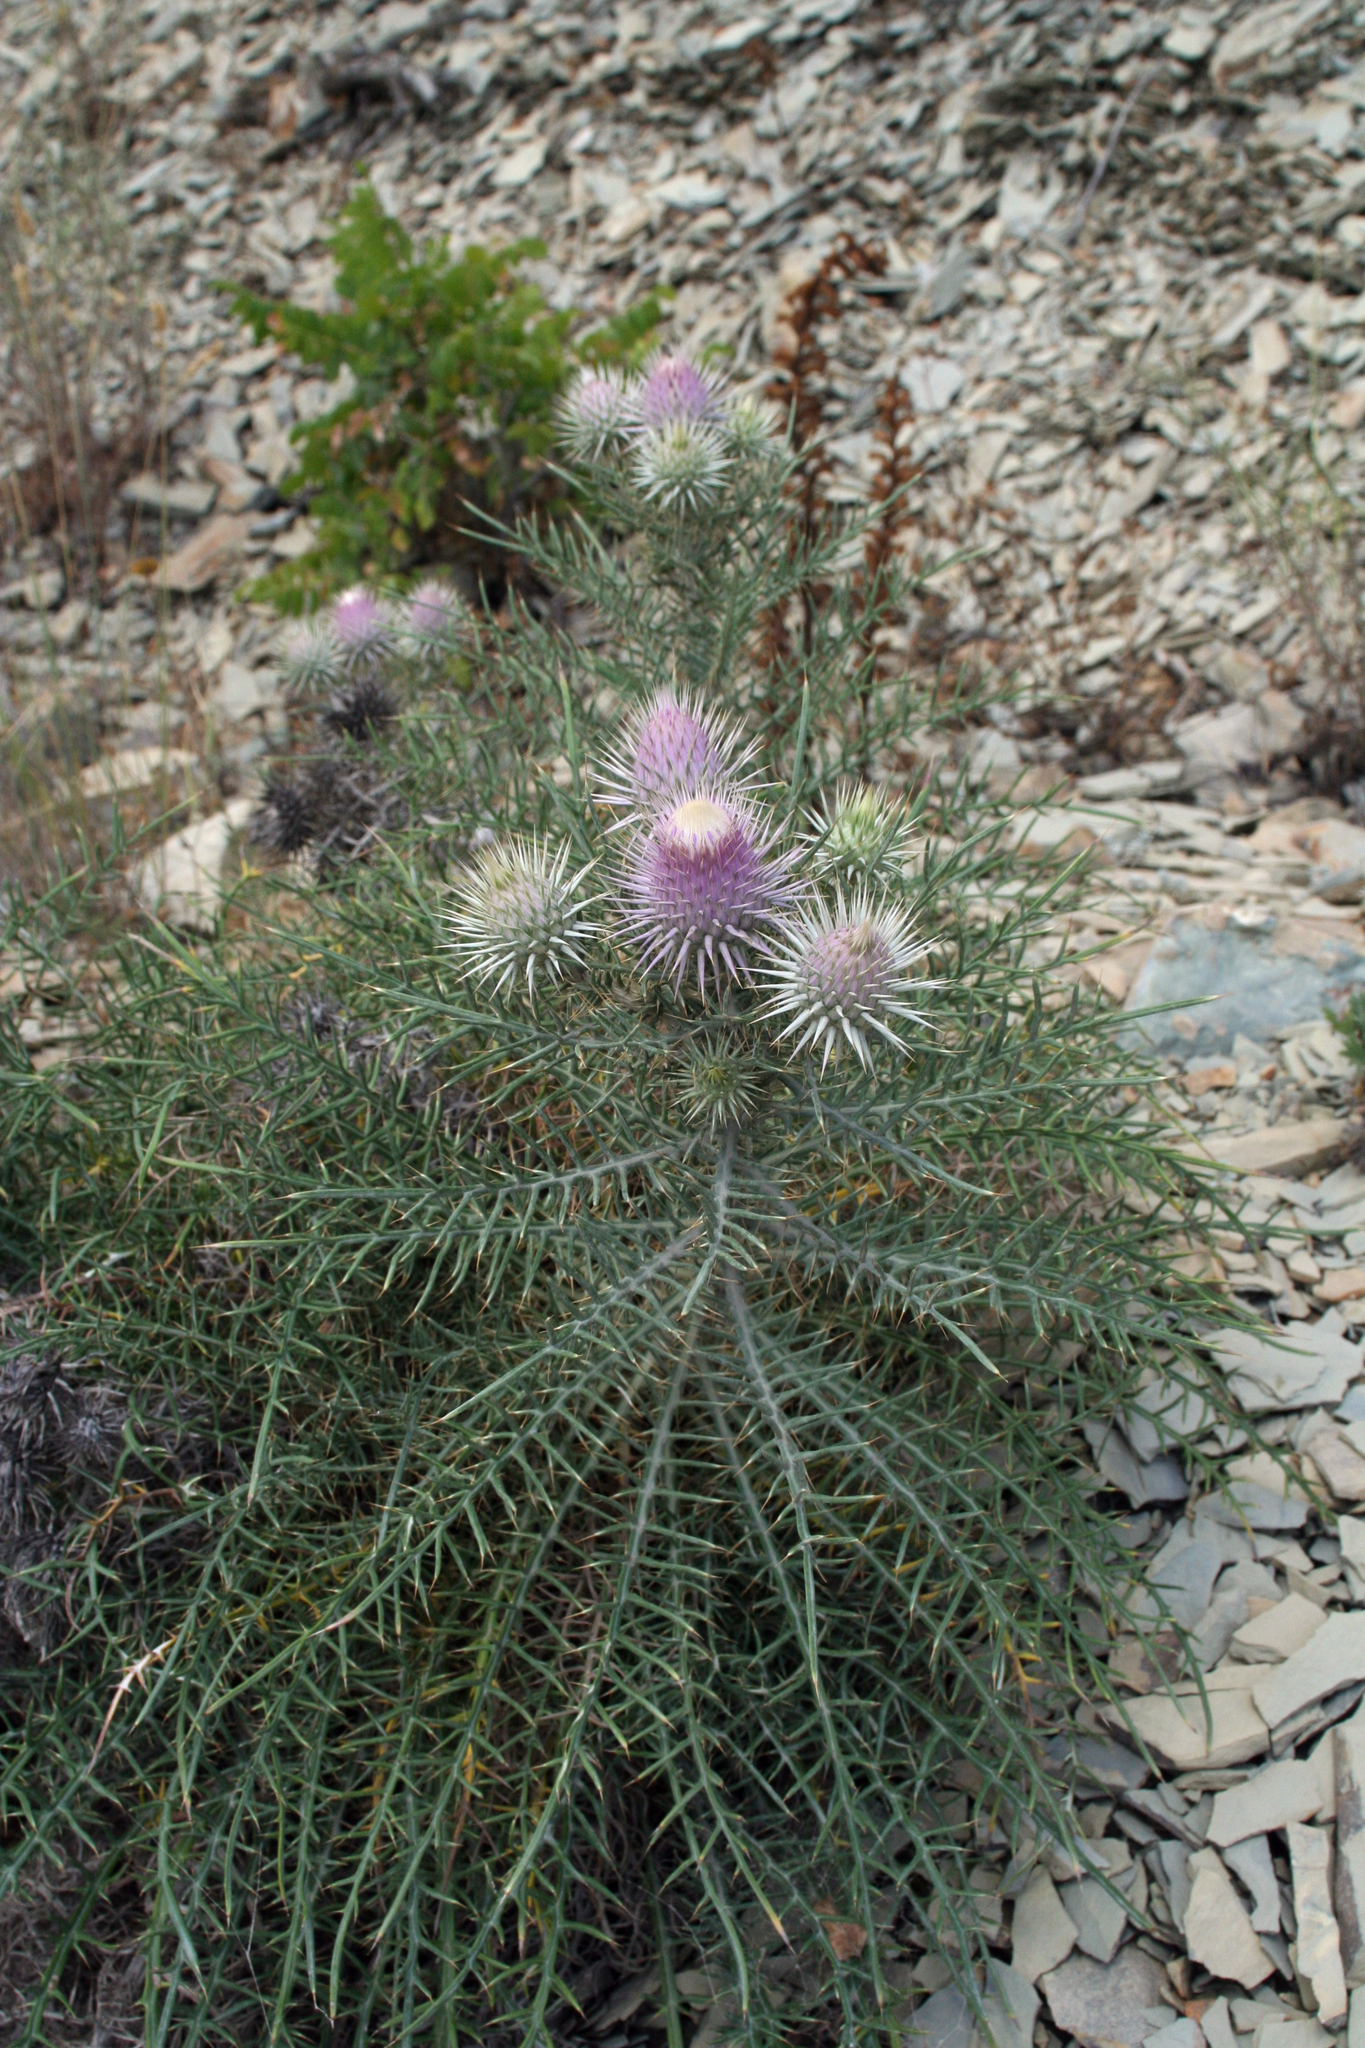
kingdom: Plantae
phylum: Tracheophyta
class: Magnoliopsida
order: Asterales
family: Asteraceae
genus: Ptilostemon
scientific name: Ptilostemon echinocephalus
